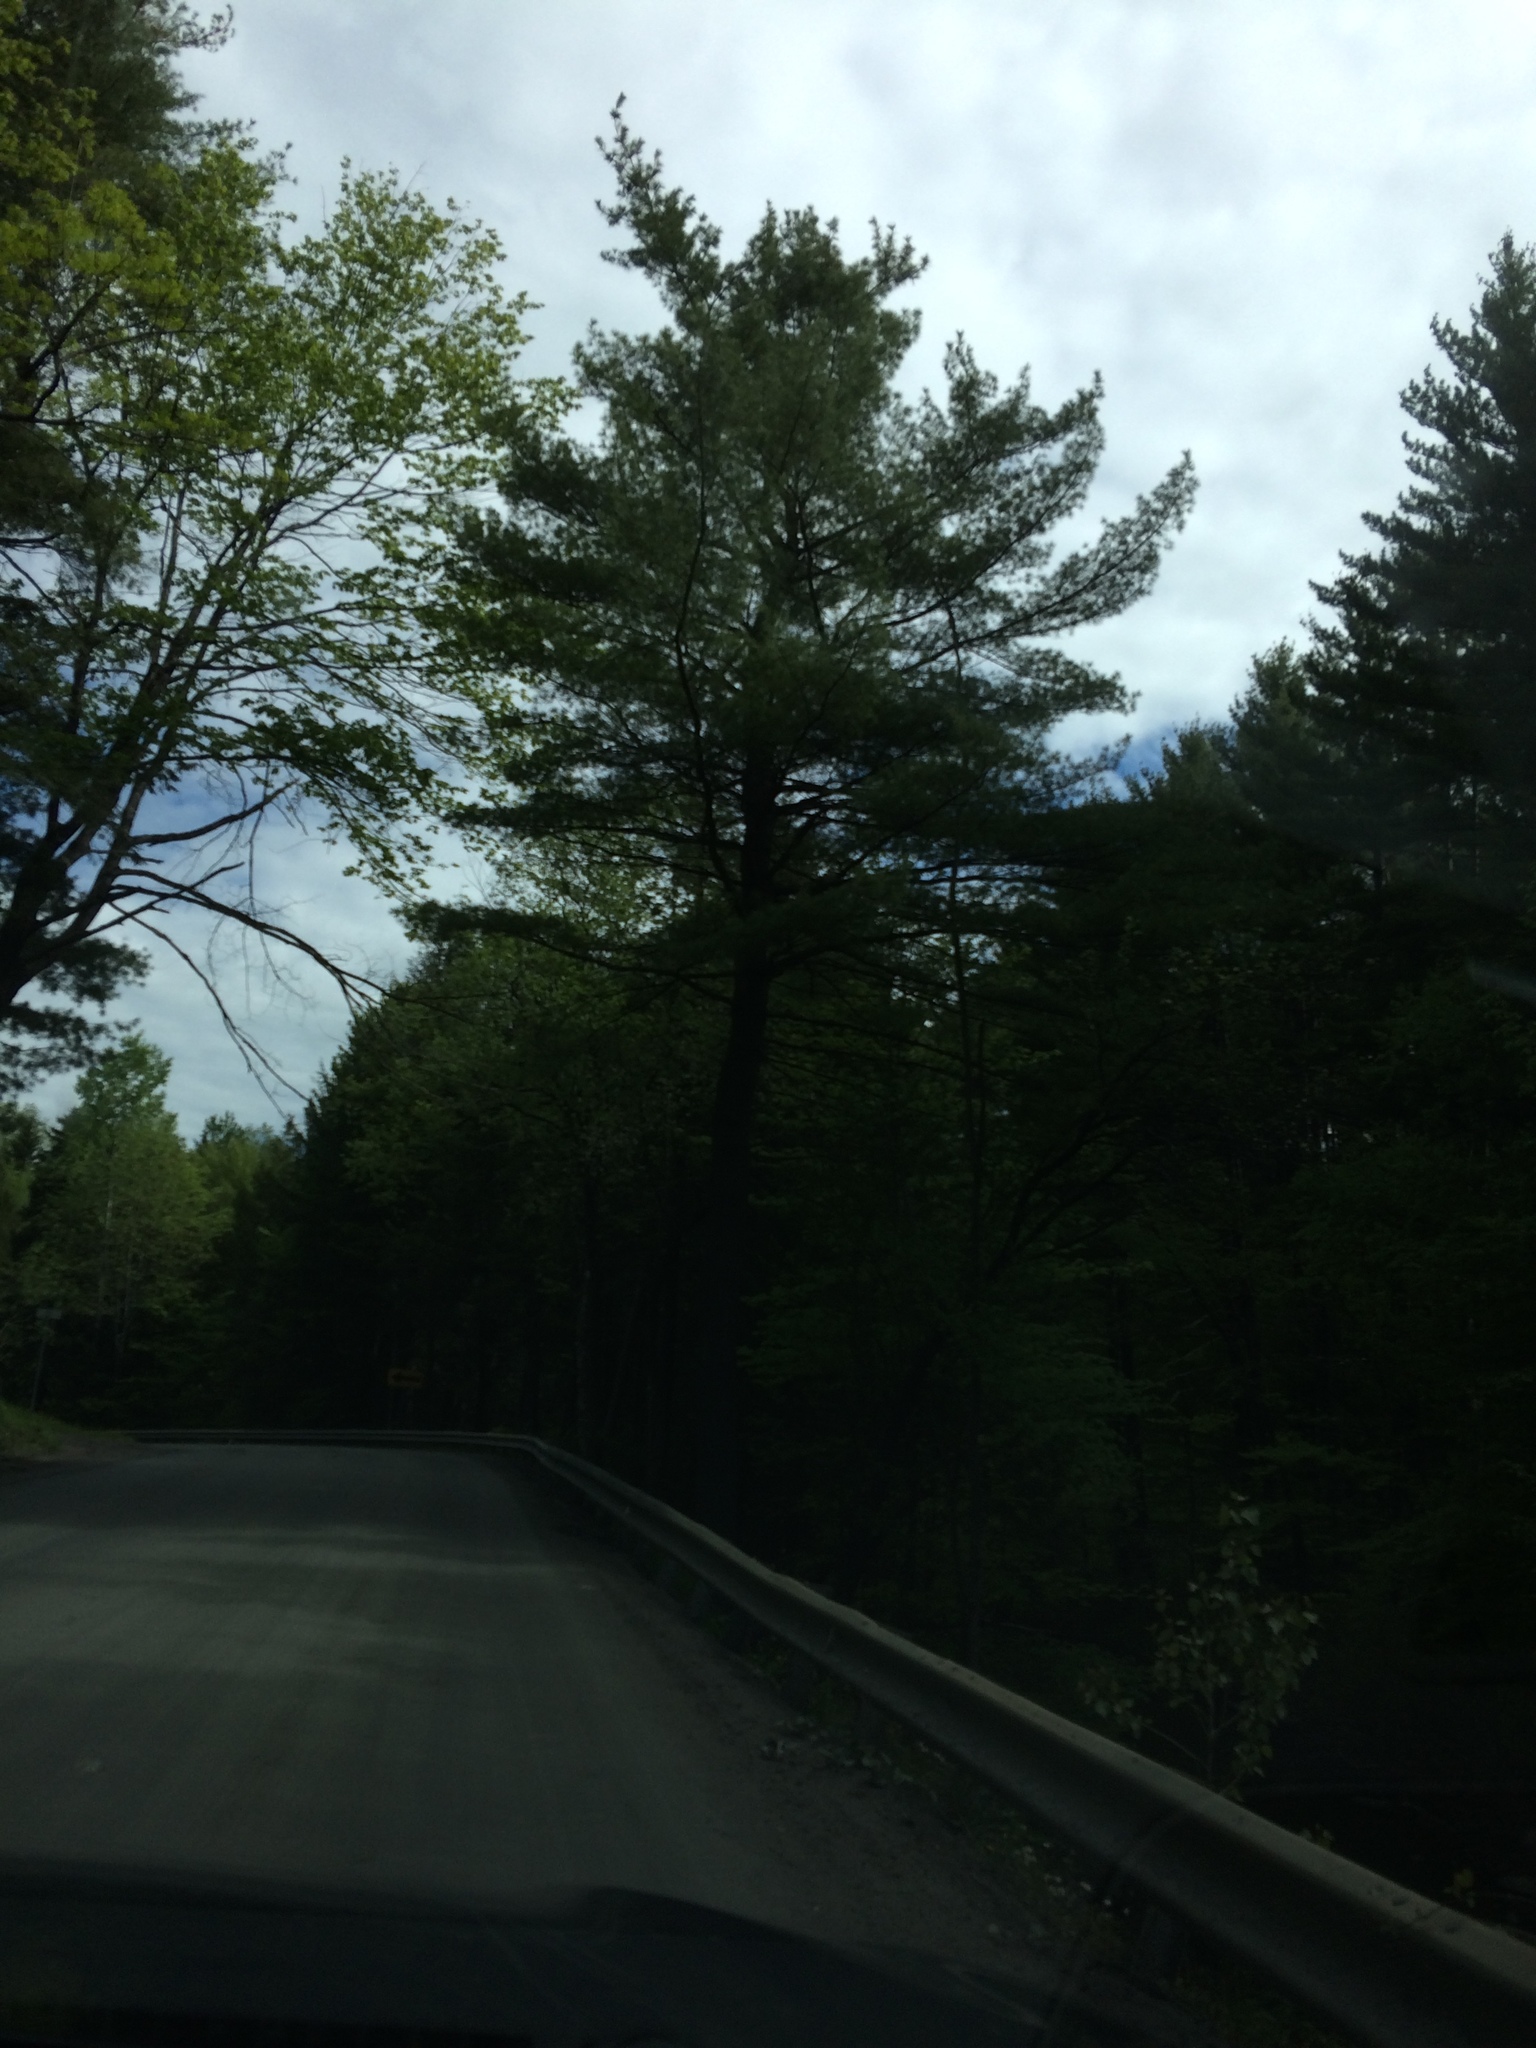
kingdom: Plantae
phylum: Tracheophyta
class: Pinopsida
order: Pinales
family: Pinaceae
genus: Pinus
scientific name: Pinus strobus
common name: Weymouth pine
